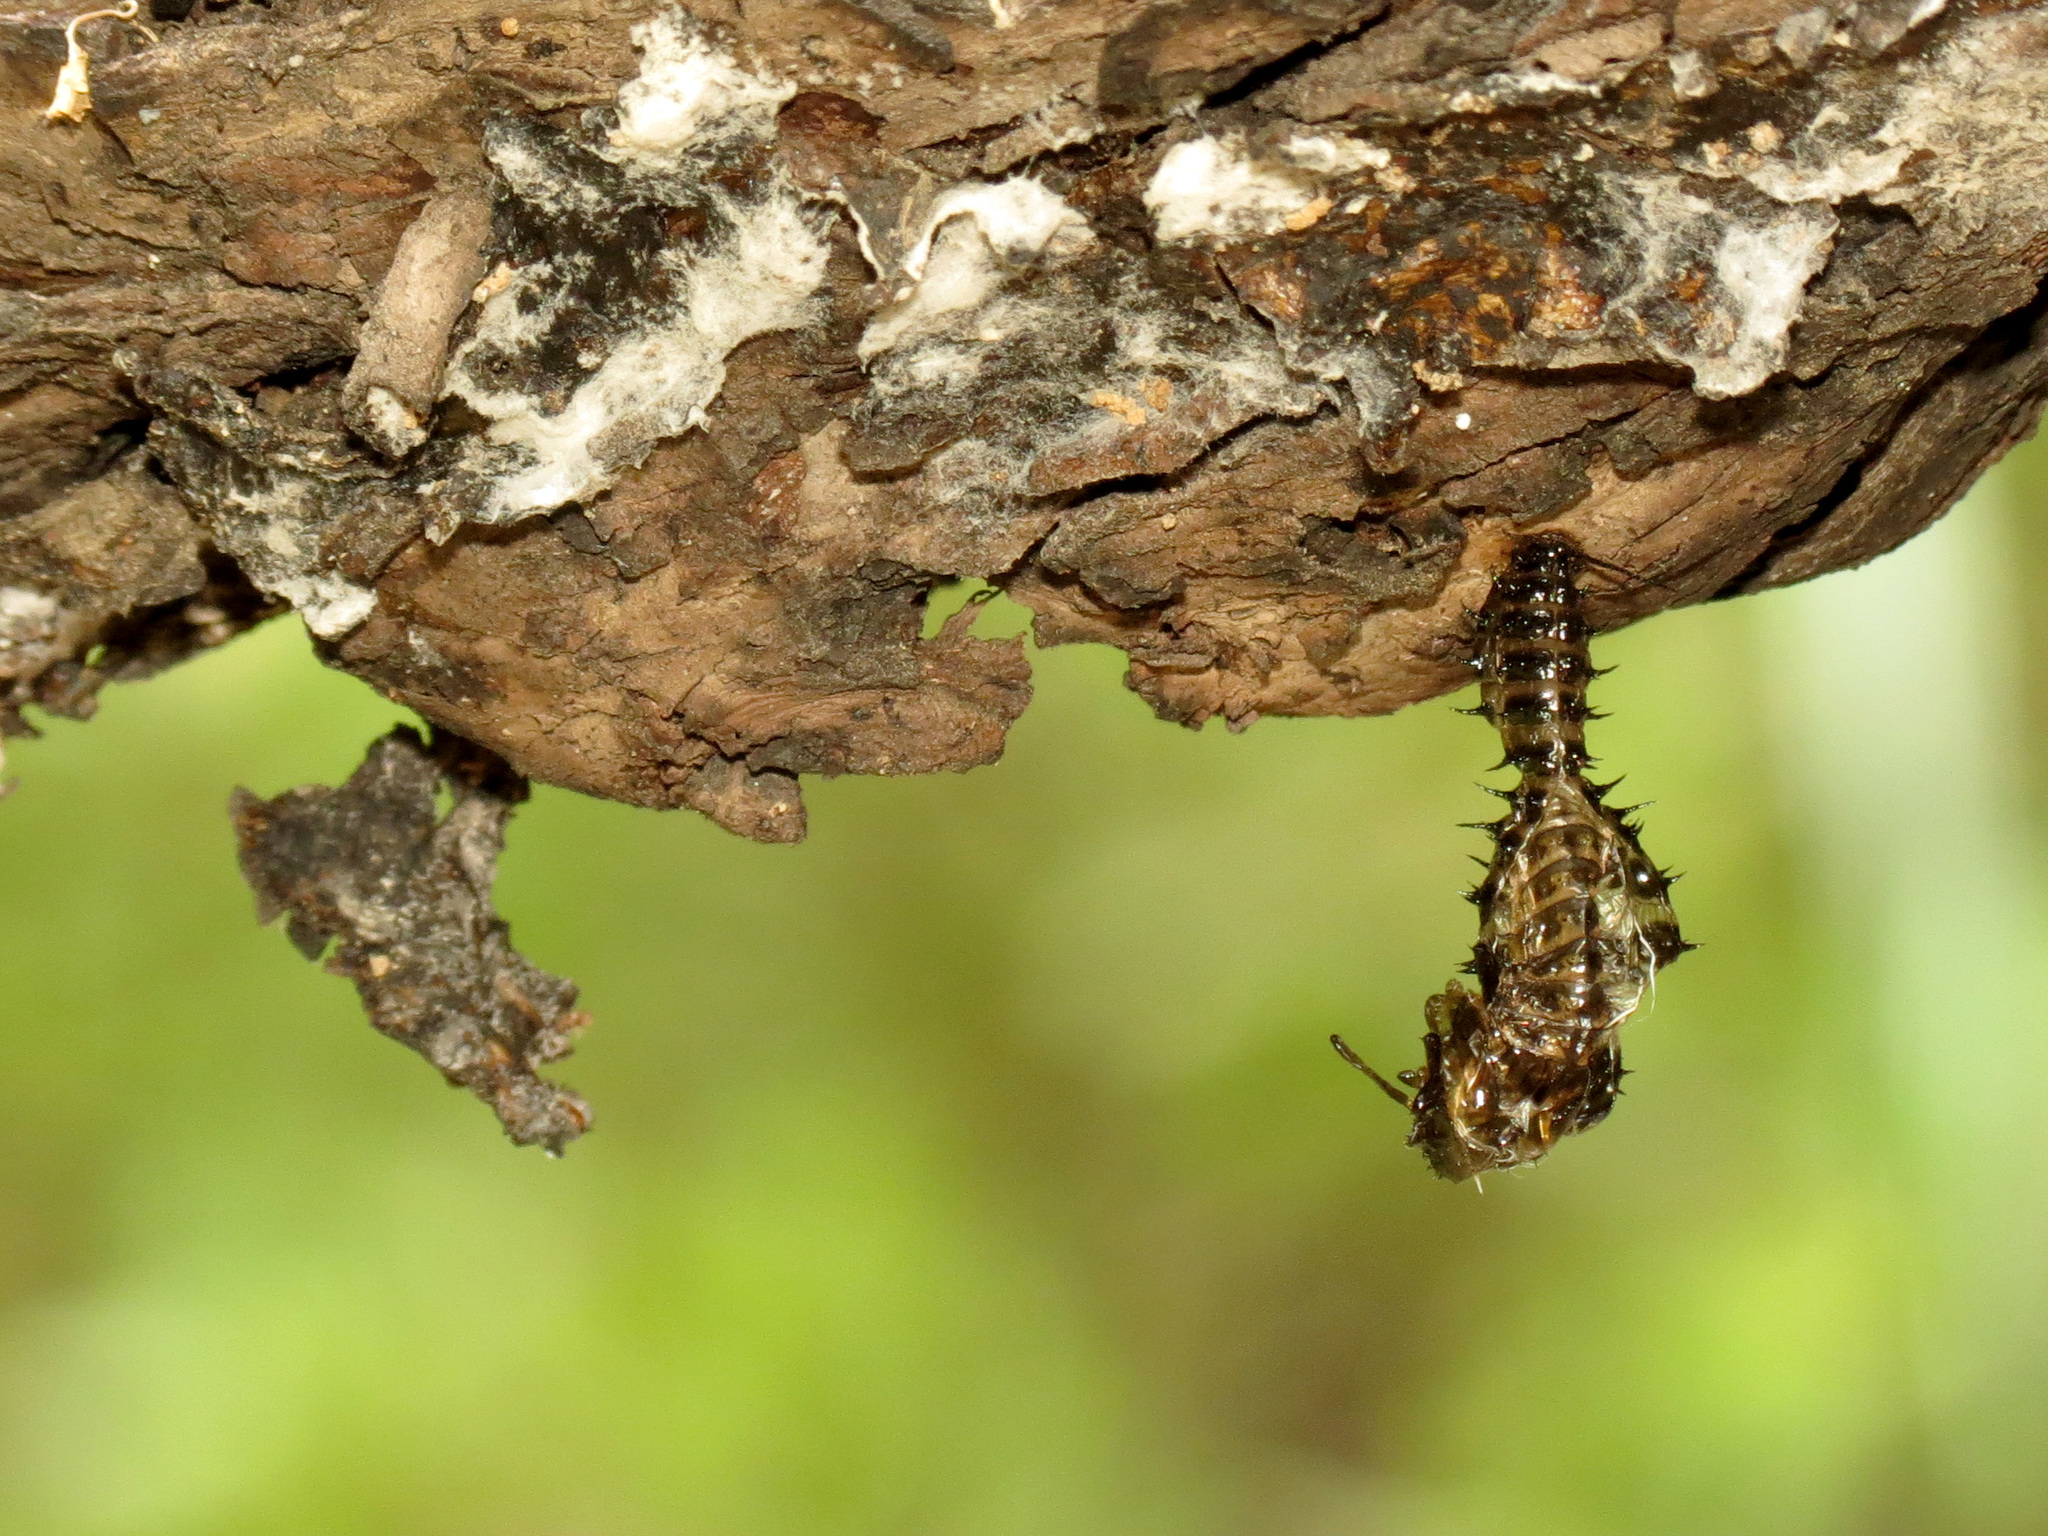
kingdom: Animalia
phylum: Arthropoda
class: Insecta
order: Coleoptera
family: Erotylidae
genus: Gibbifer
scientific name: Gibbifer californicus
